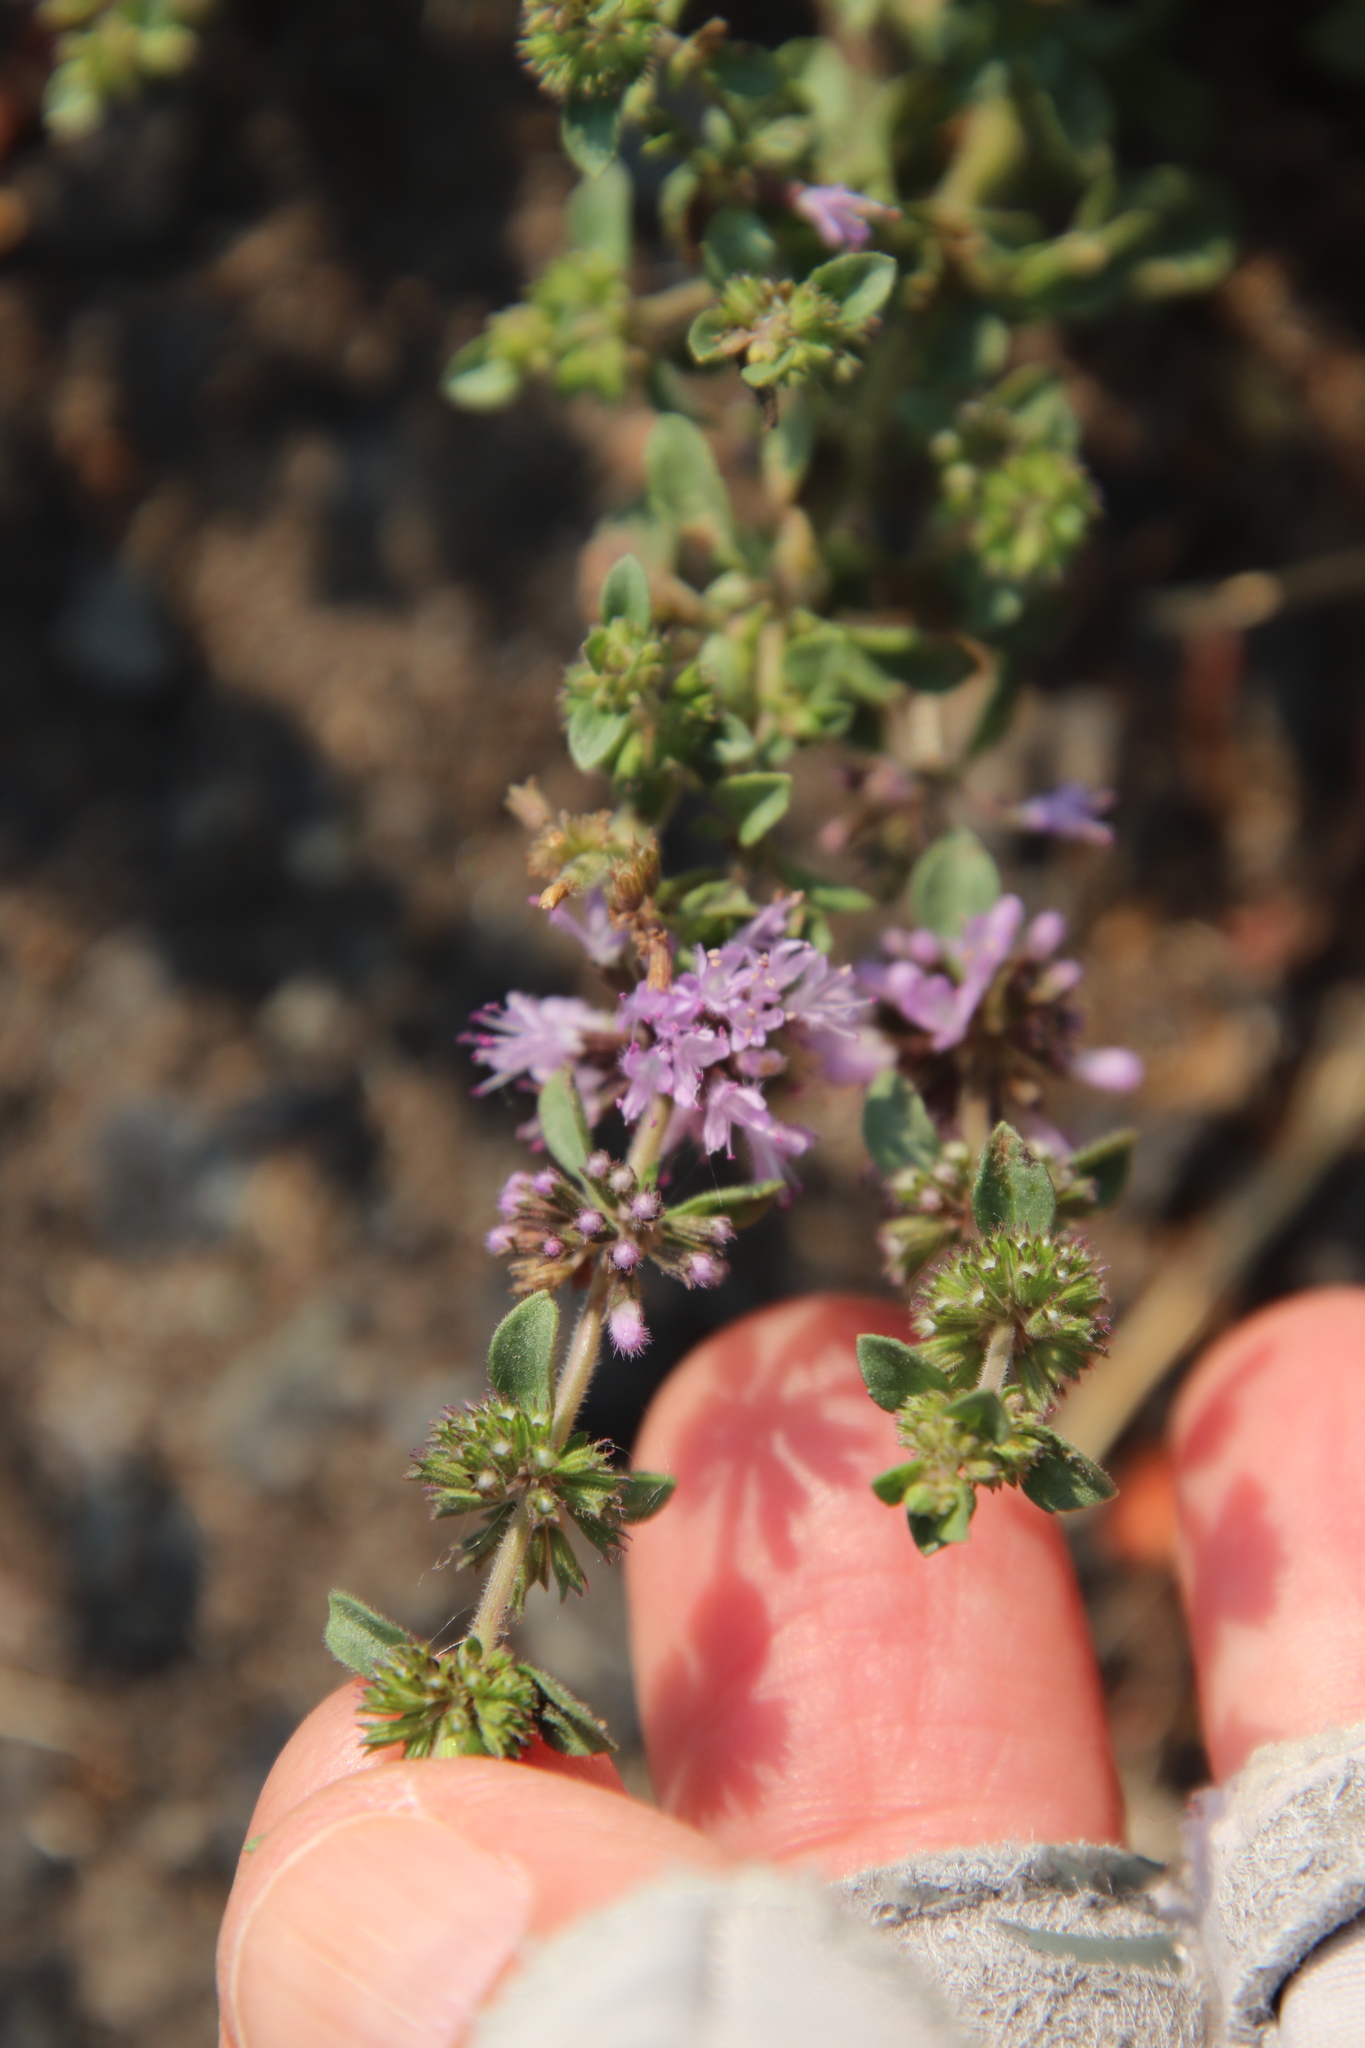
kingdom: Plantae
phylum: Tracheophyta
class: Magnoliopsida
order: Lamiales
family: Lamiaceae
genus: Mentha
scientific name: Mentha pulegium
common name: Pennyroyal
